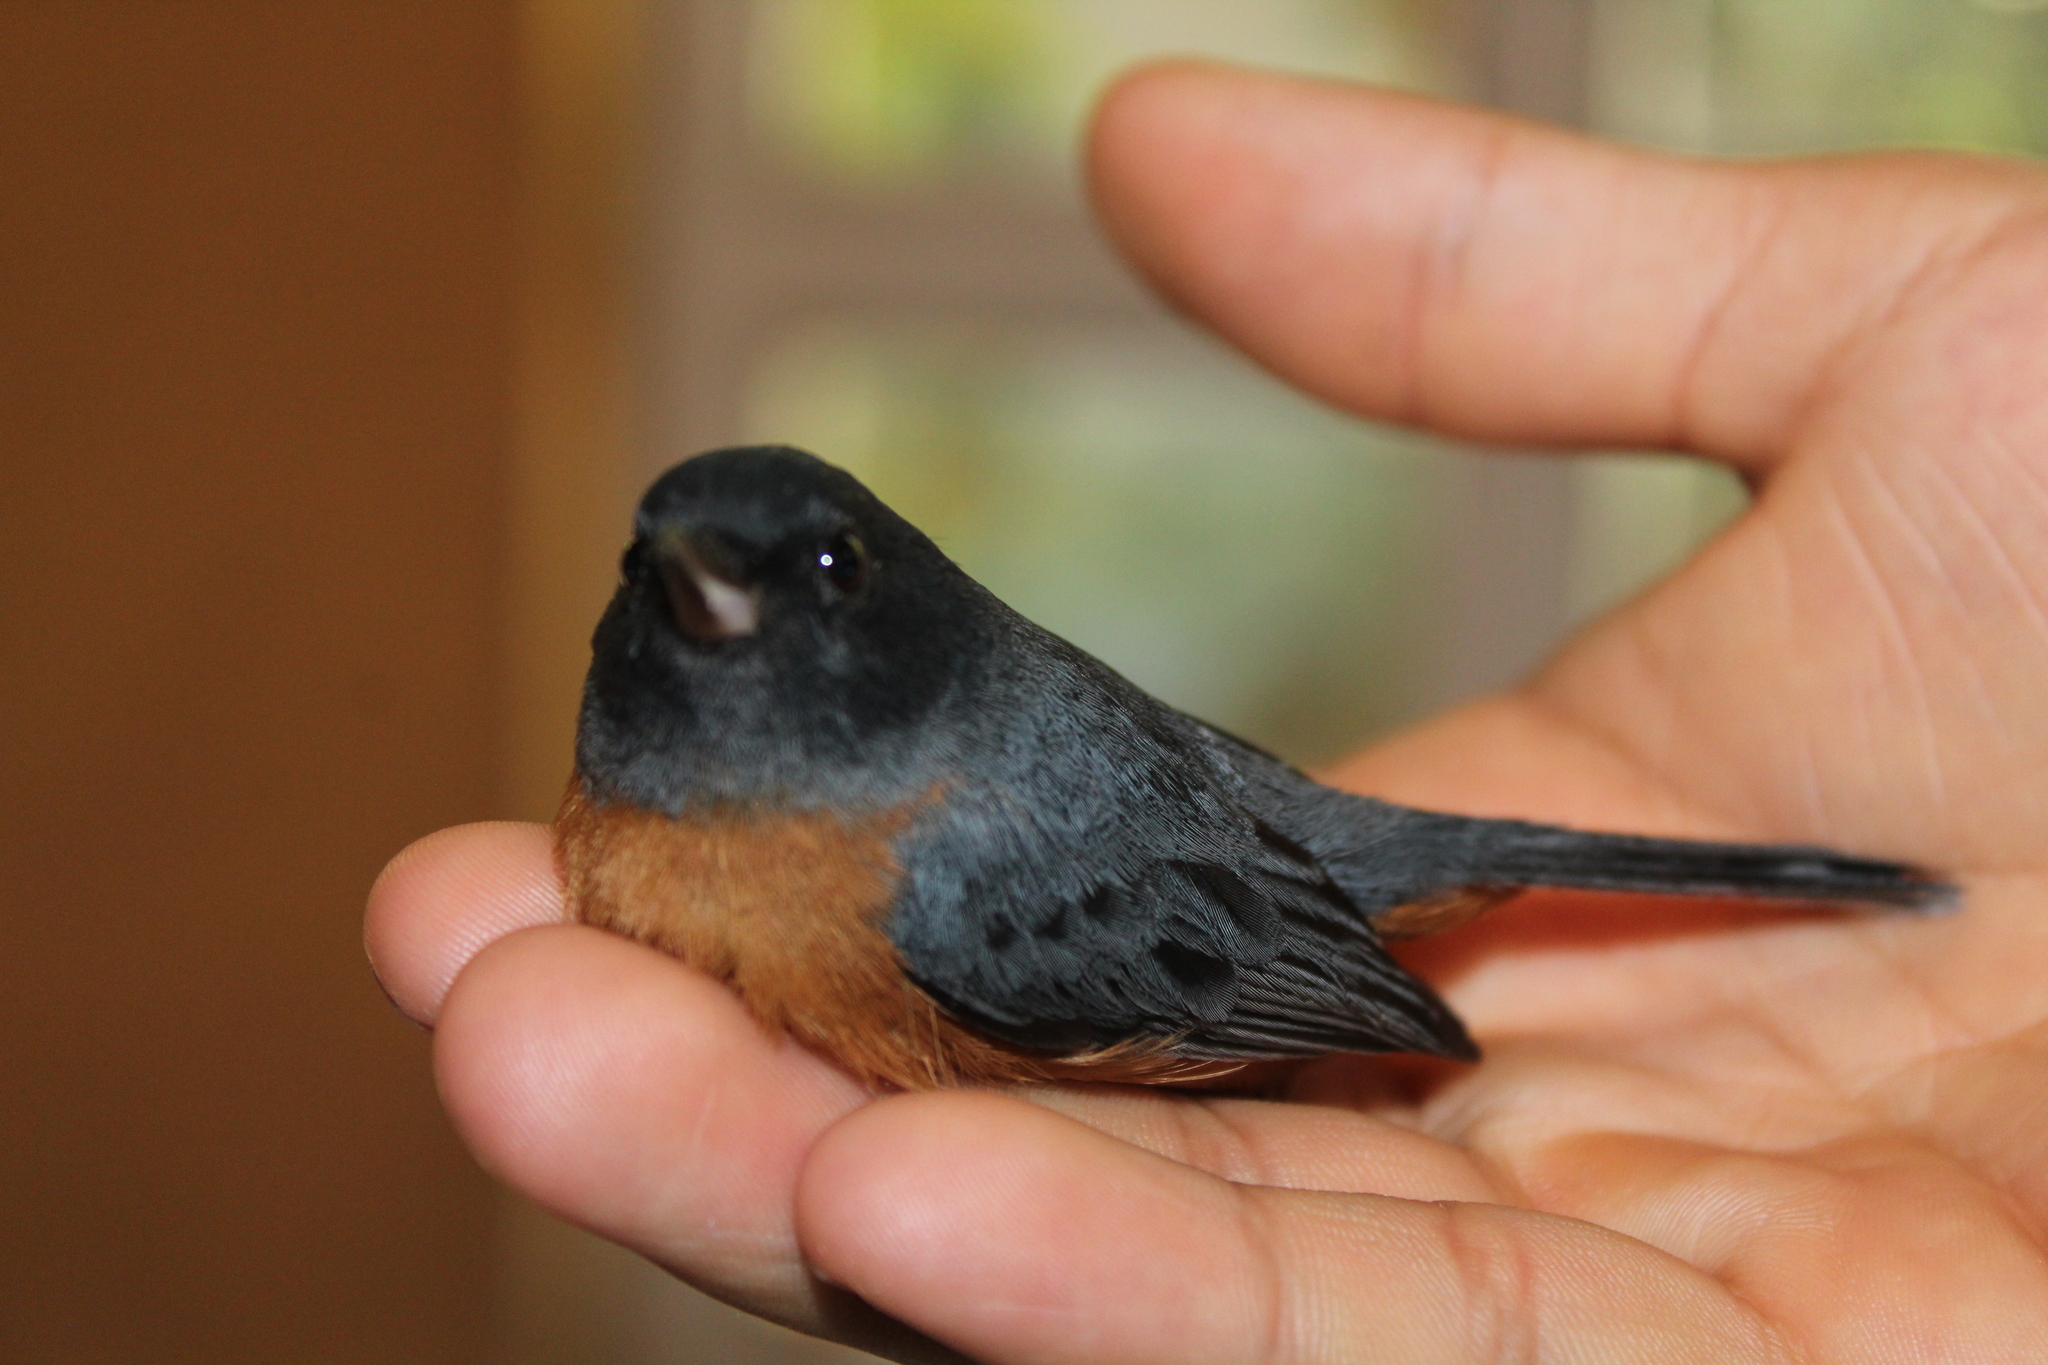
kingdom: Animalia
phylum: Chordata
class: Aves
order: Passeriformes
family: Thraupidae
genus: Diglossa
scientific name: Diglossa baritula
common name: Cinnamon-bellied flowerpiercer
